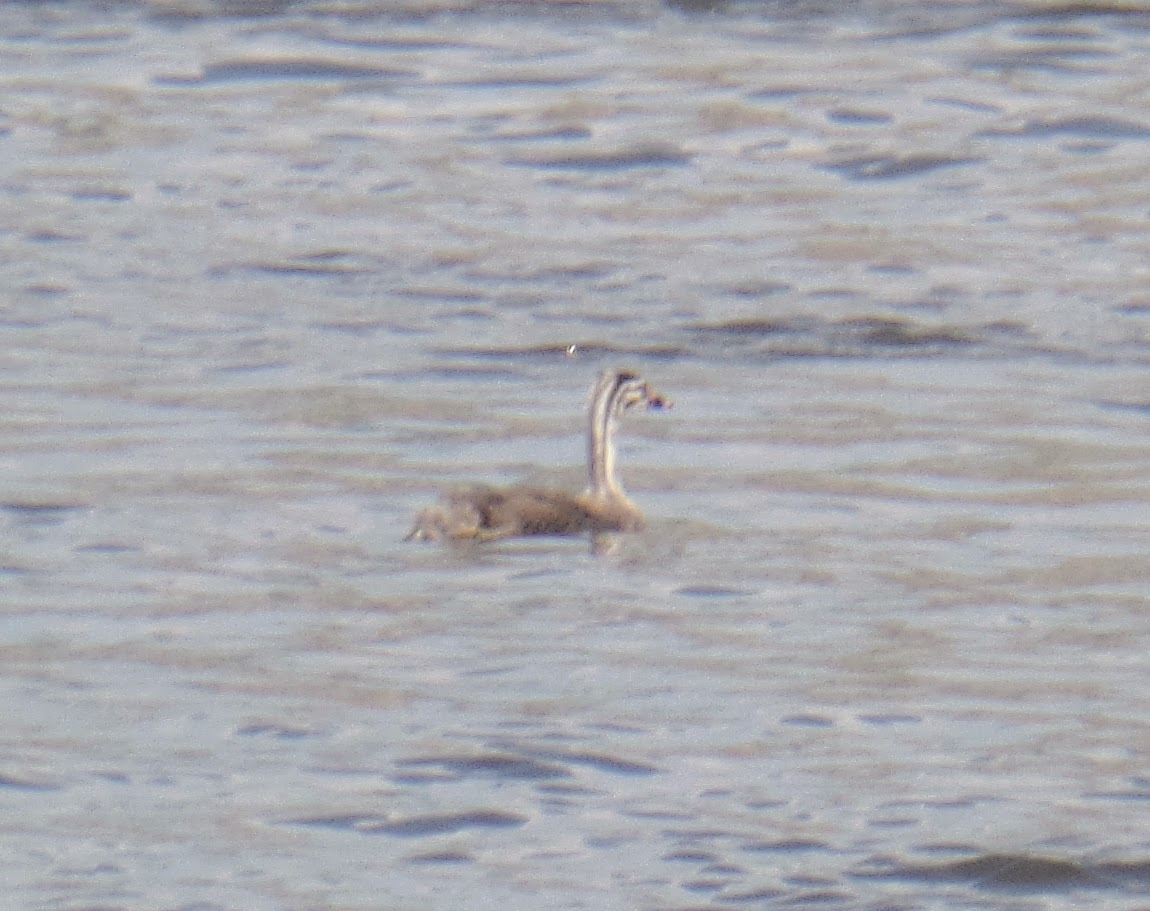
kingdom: Animalia
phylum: Chordata
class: Aves
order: Podicipediformes
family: Podicipedidae
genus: Podiceps
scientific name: Podiceps cristatus
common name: Great crested grebe
